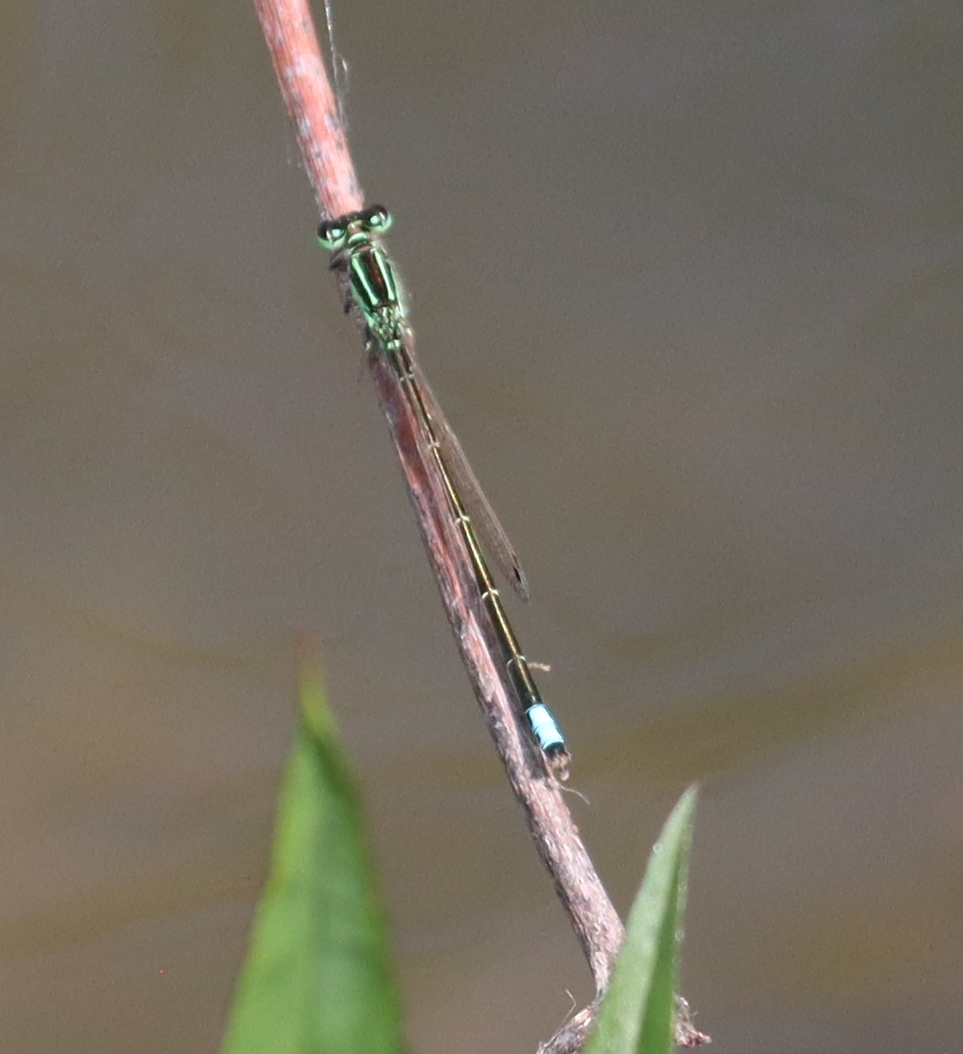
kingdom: Animalia
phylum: Arthropoda
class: Insecta
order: Odonata
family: Coenagrionidae
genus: Ischnura
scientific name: Ischnura verticalis
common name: Eastern forktail
